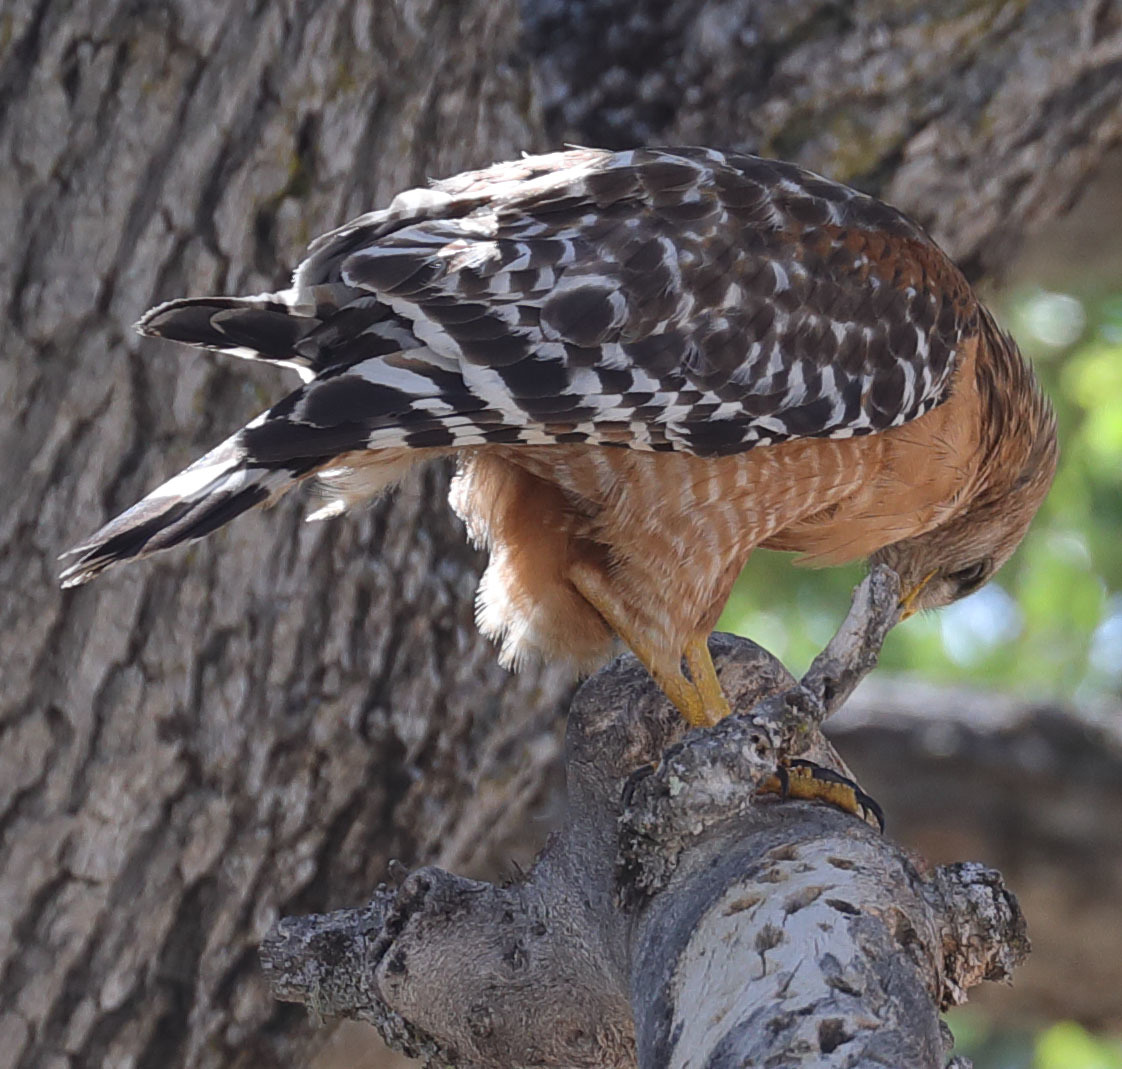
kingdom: Animalia
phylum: Chordata
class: Aves
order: Accipitriformes
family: Accipitridae
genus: Buteo
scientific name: Buteo lineatus
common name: Red-shouldered hawk
